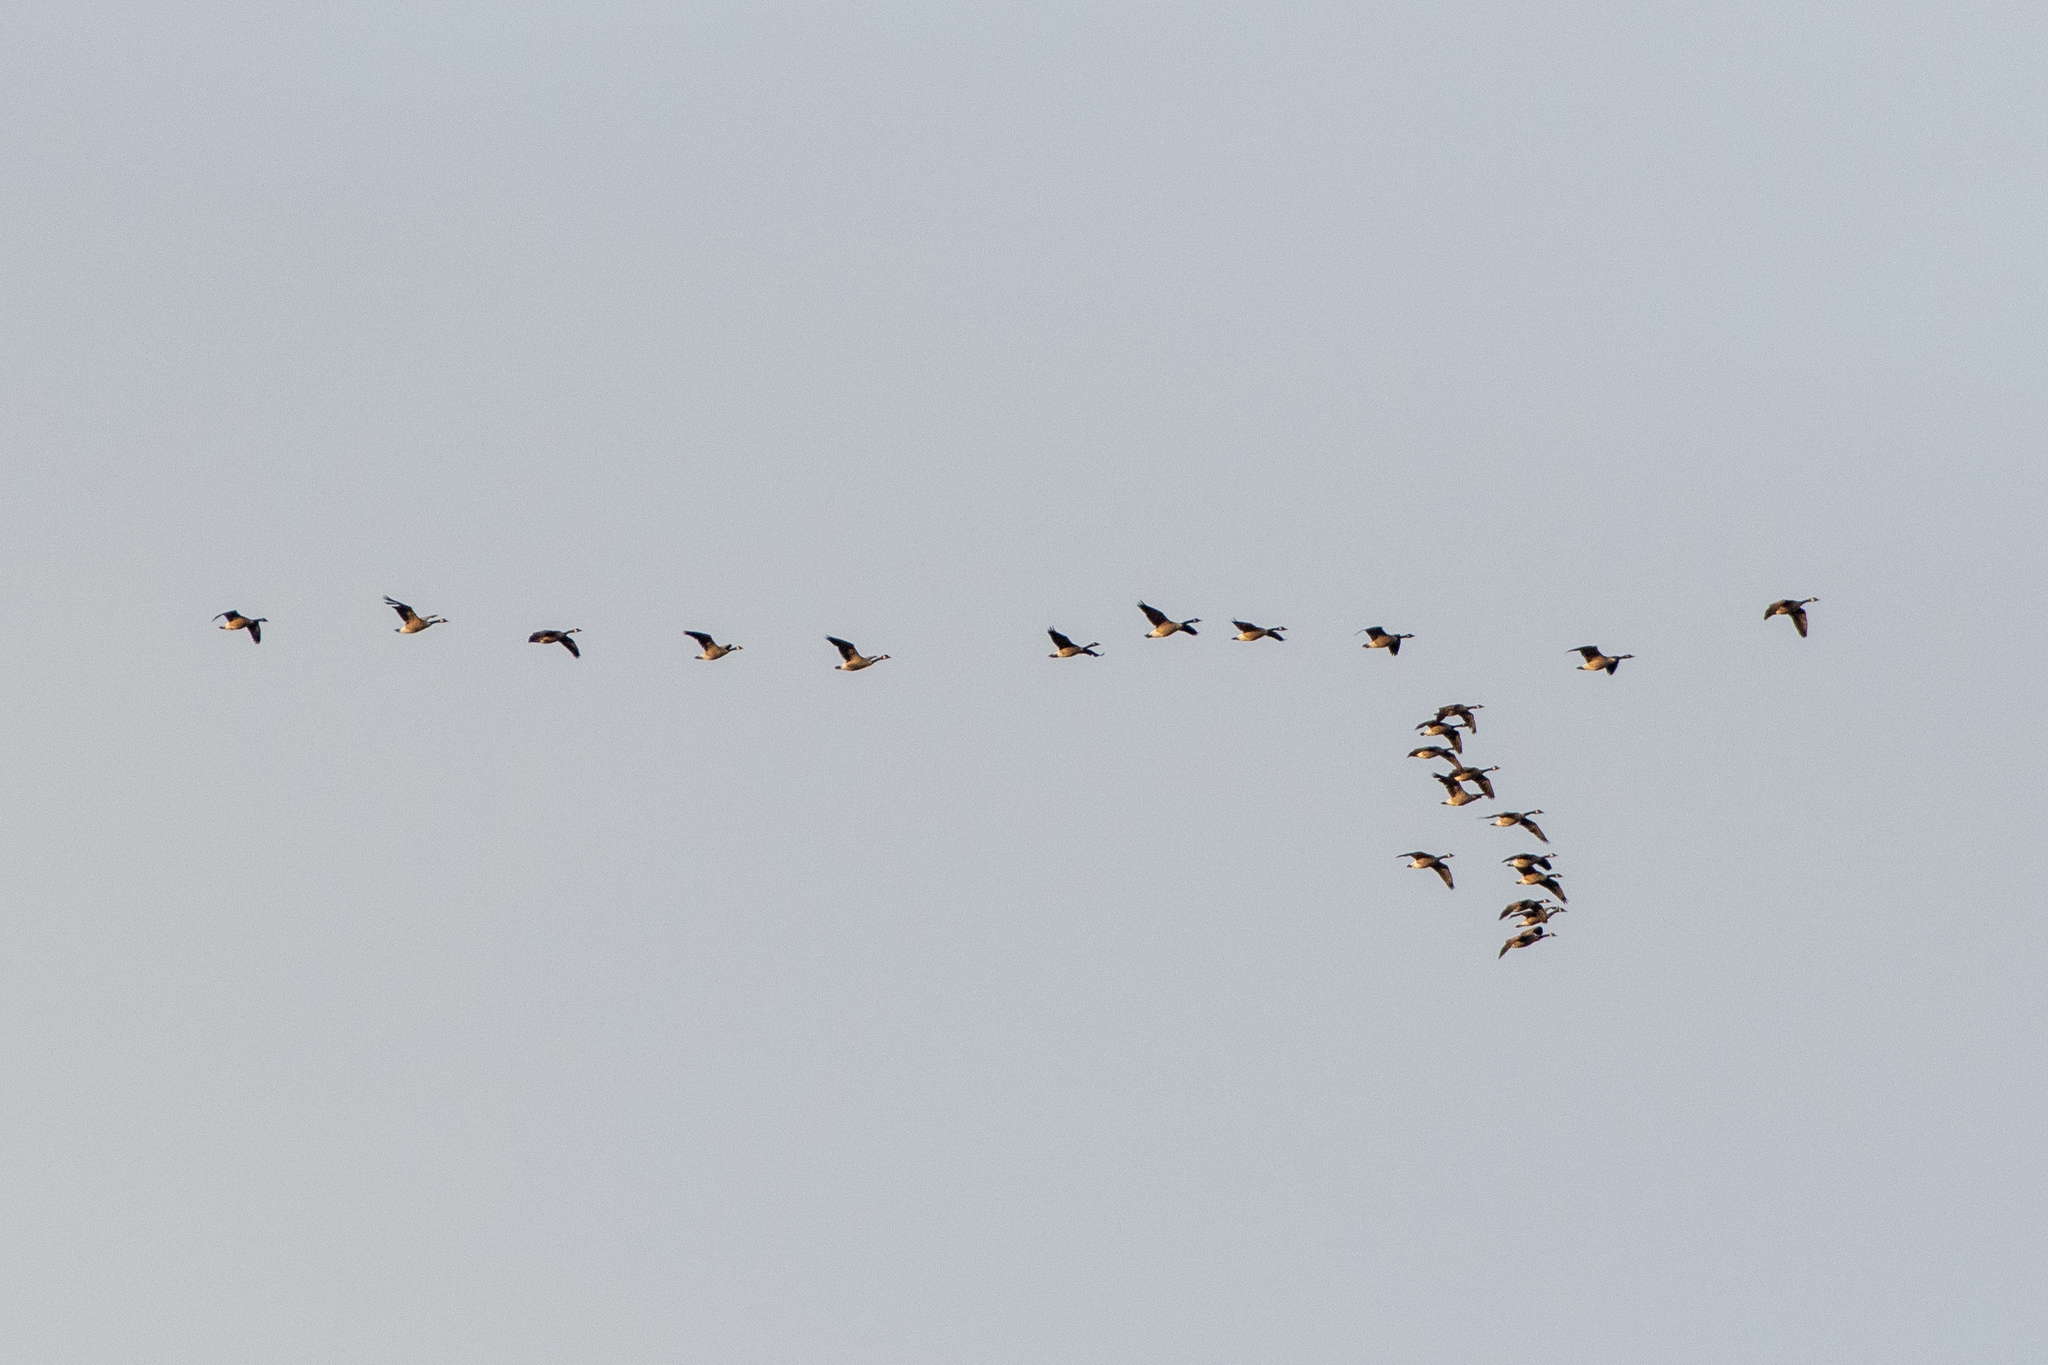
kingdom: Animalia
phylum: Chordata
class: Aves
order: Anseriformes
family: Anatidae
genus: Branta
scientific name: Branta canadensis
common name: Canada goose
